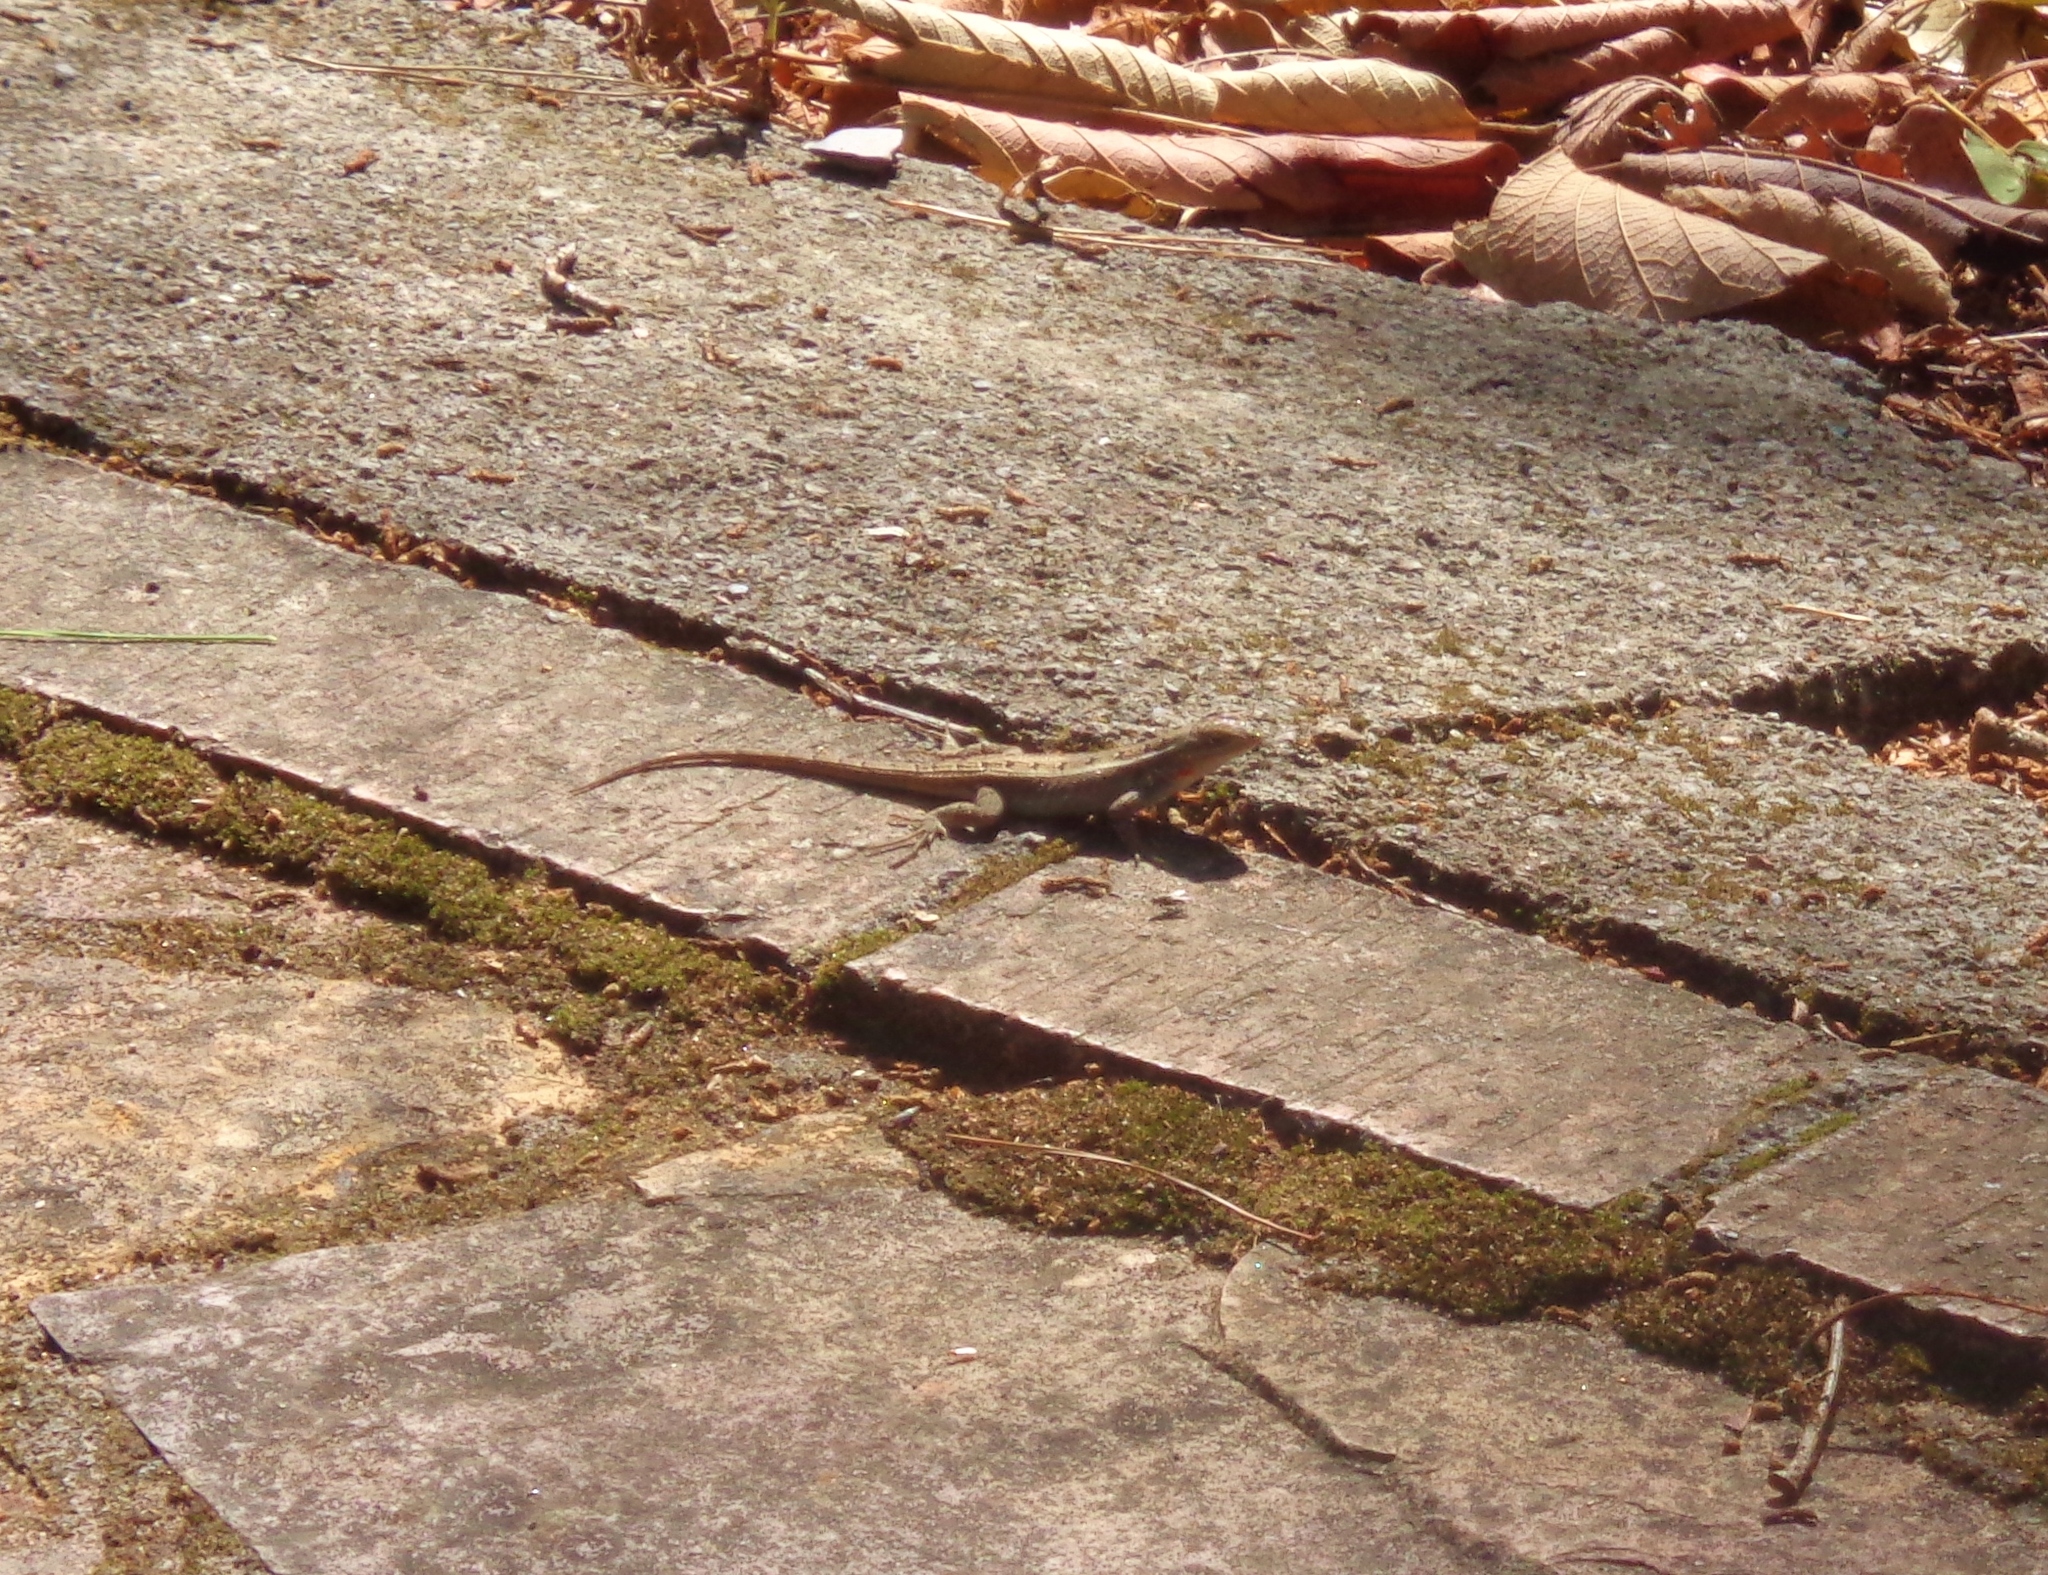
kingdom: Animalia
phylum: Chordata
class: Squamata
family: Phrynosomatidae
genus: Sceloporus
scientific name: Sceloporus variabilis
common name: Rosebelly lizard
